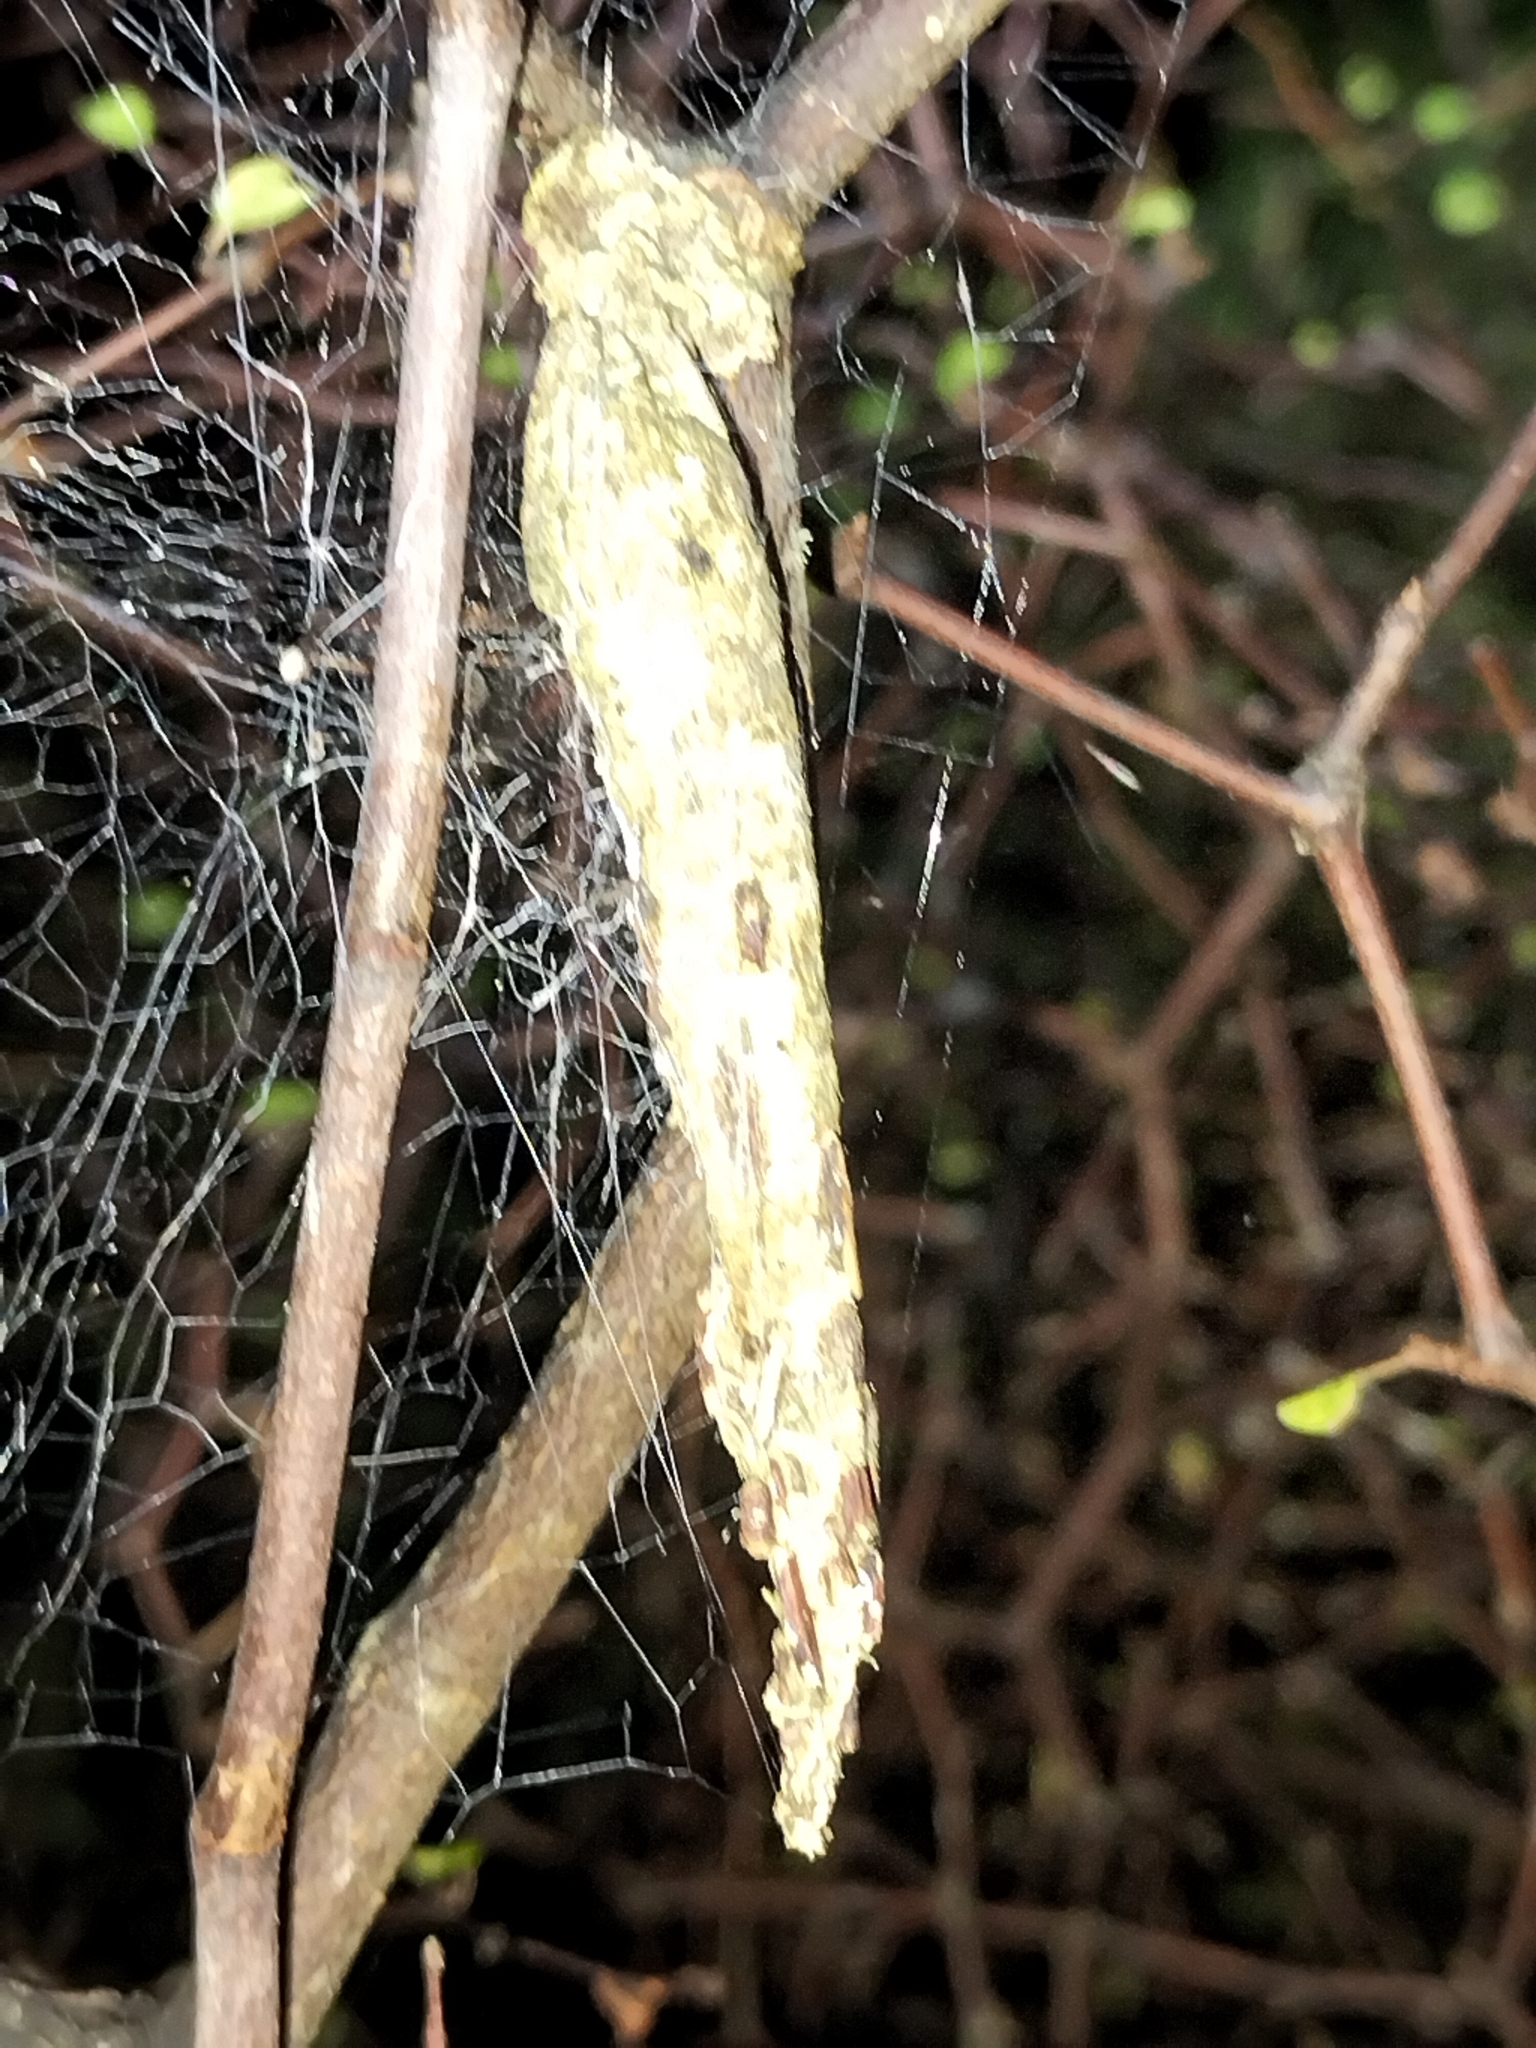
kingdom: Animalia
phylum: Arthropoda
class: Insecta
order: Lepidoptera
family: Psychidae
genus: Liothula
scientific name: Liothula omnivora
